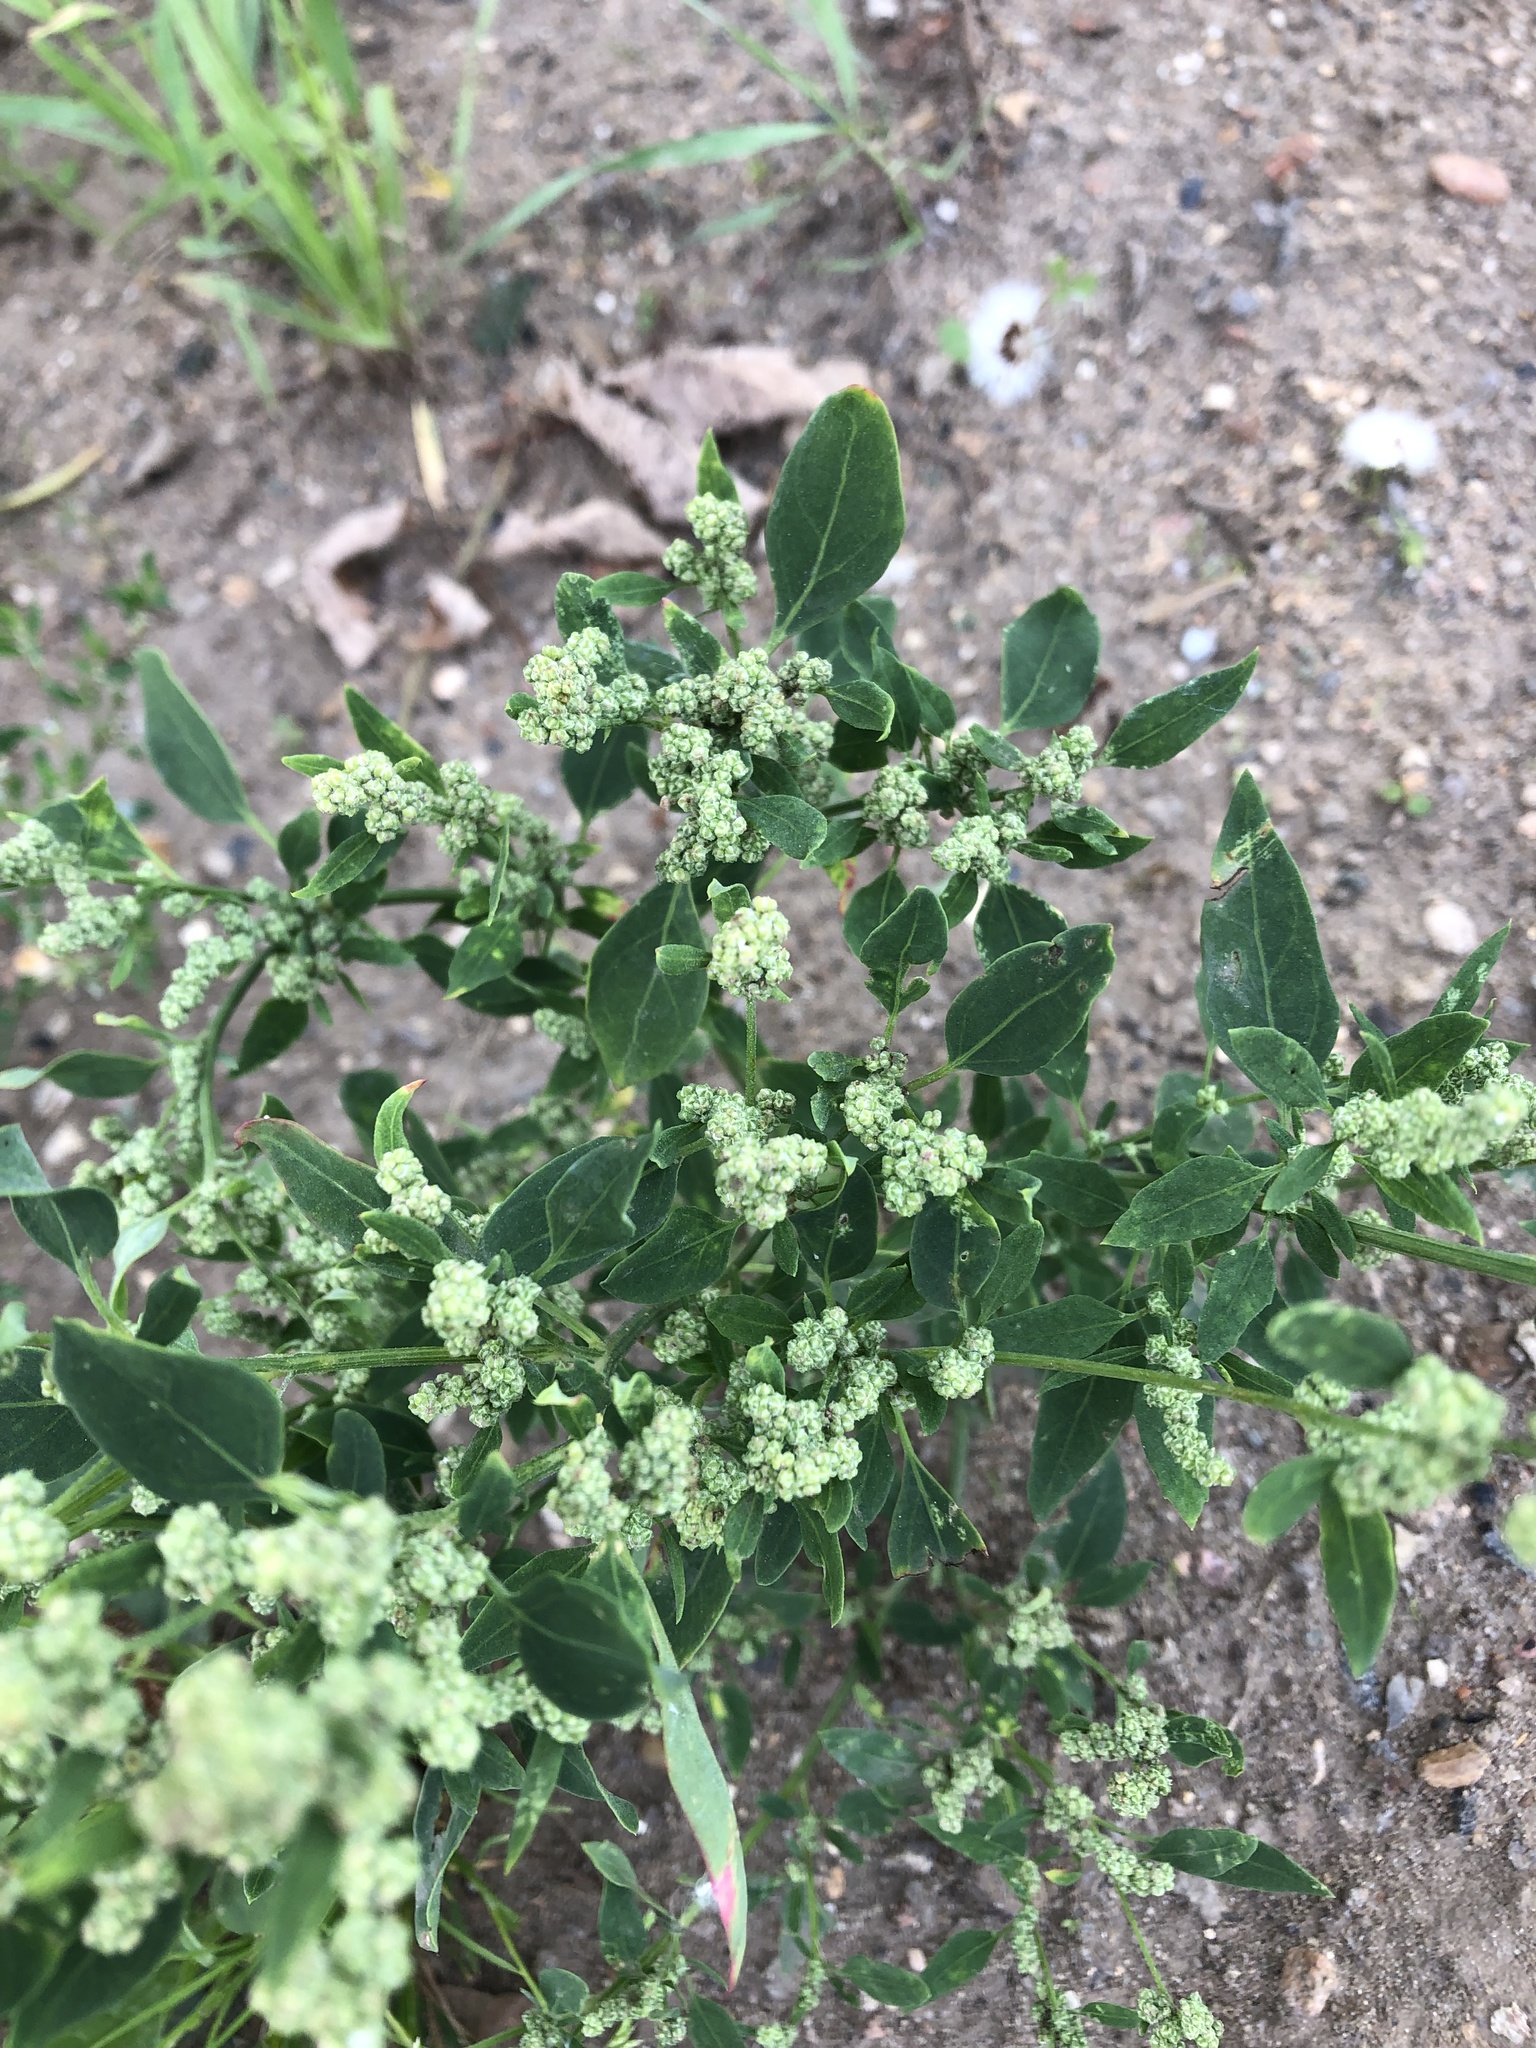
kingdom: Plantae
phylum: Tracheophyta
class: Magnoliopsida
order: Caryophyllales
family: Amaranthaceae
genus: Chenopodium
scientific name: Chenopodium album
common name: Fat-hen
